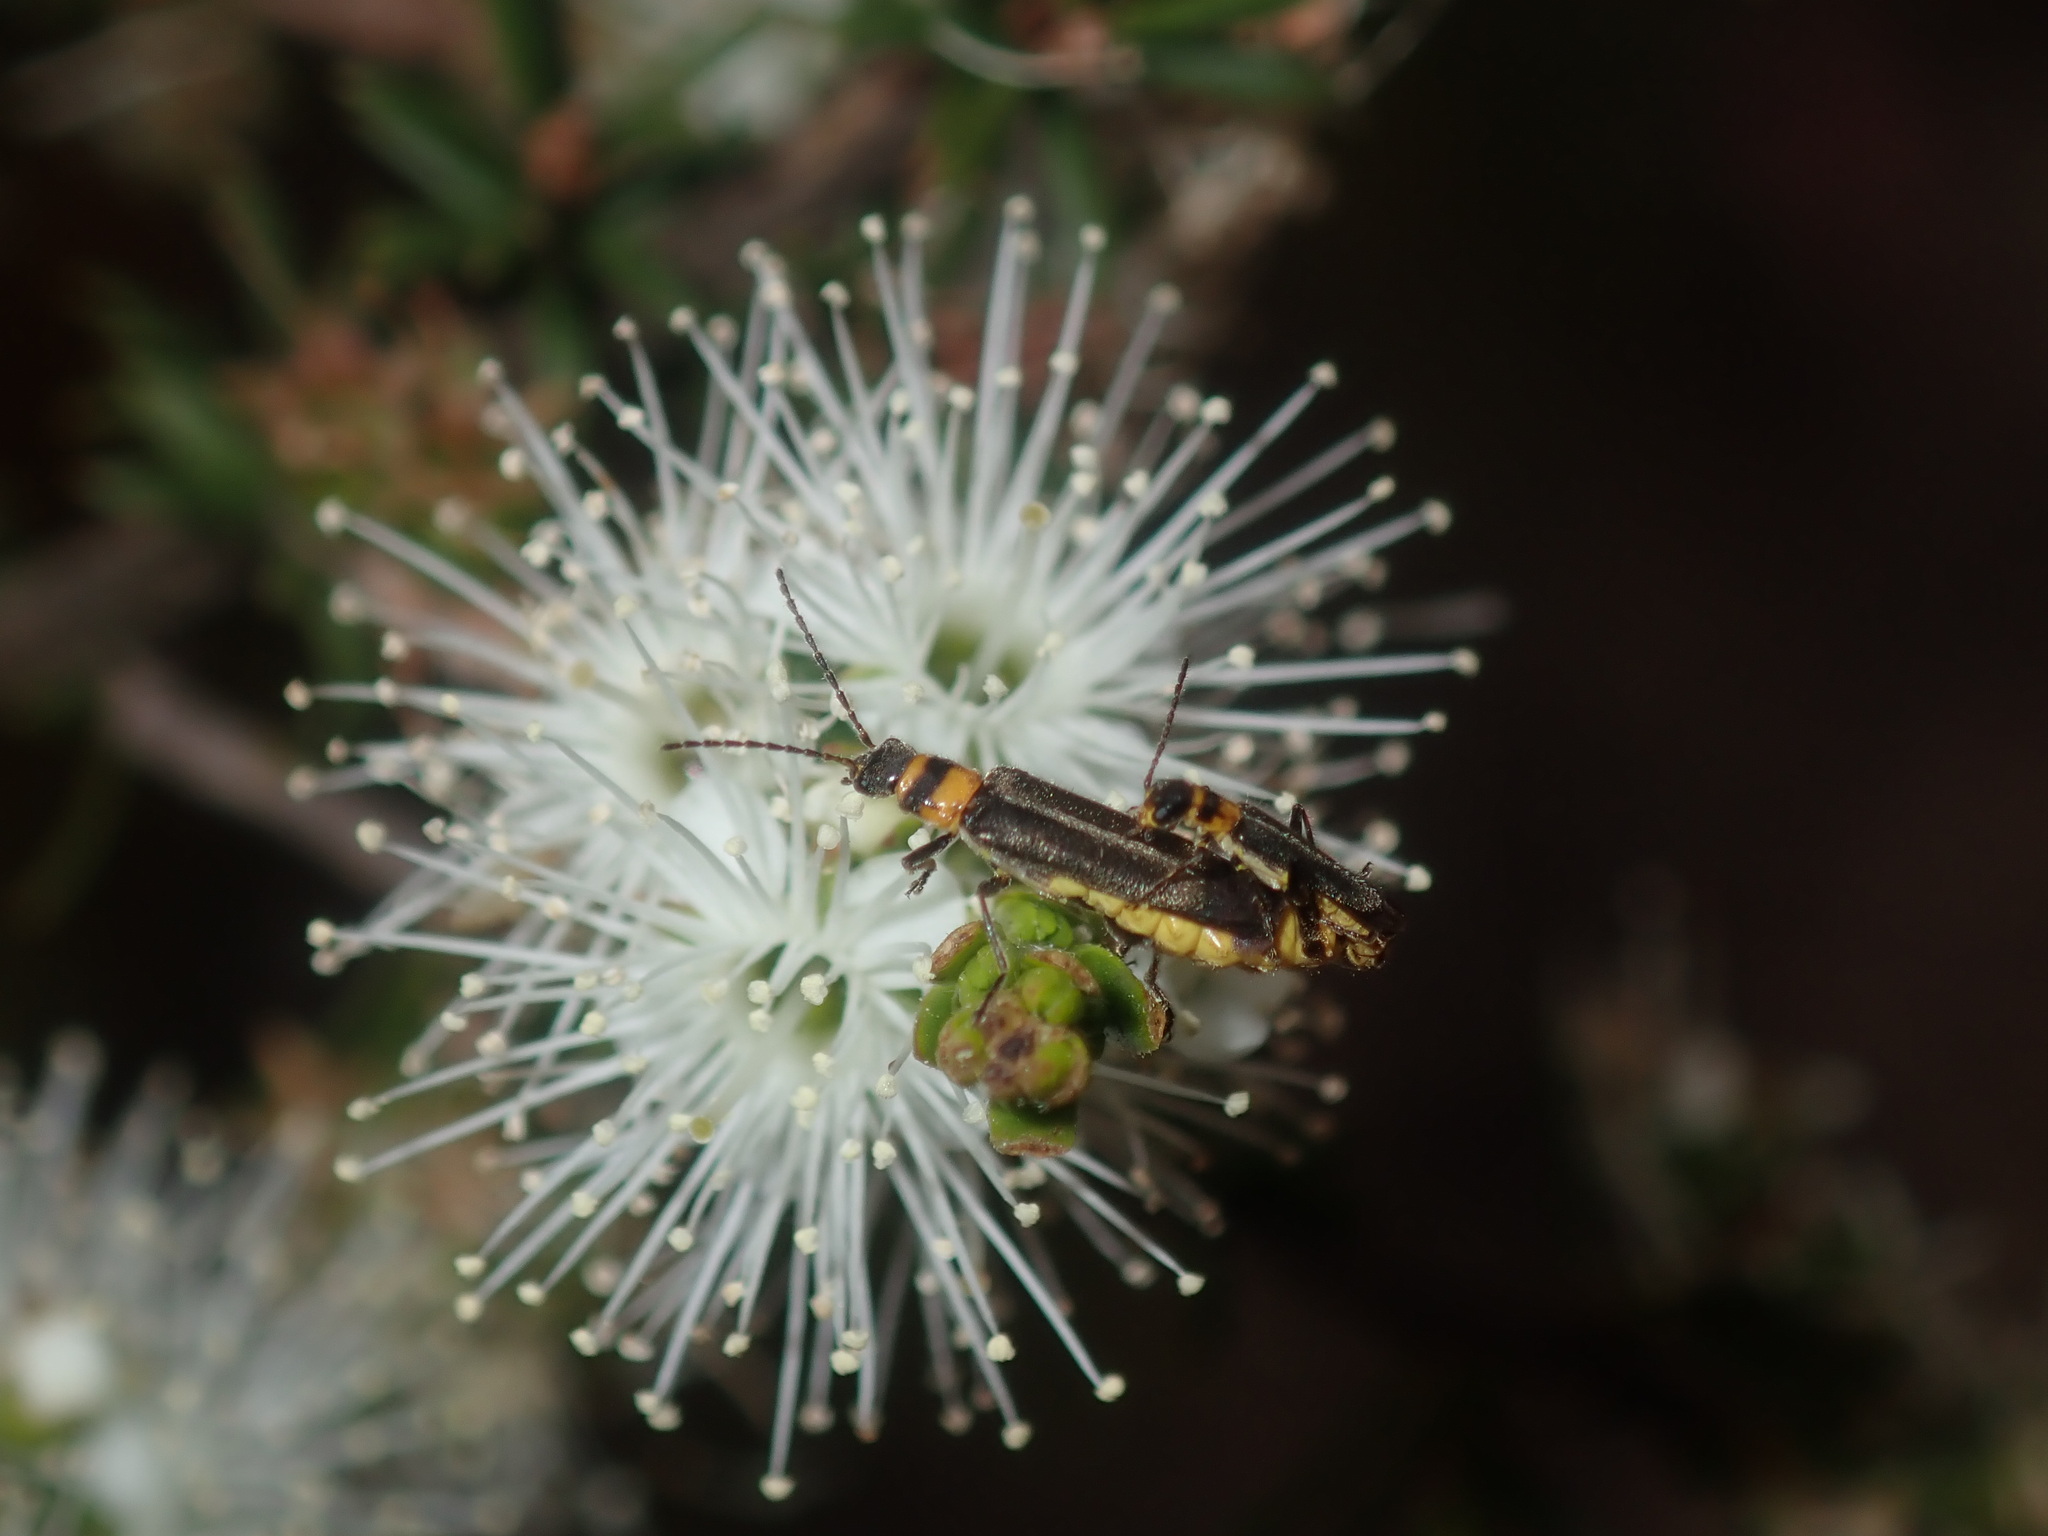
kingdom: Animalia
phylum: Arthropoda
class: Insecta
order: Coleoptera
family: Cantharidae
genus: Chauliognathus
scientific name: Chauliognathus
